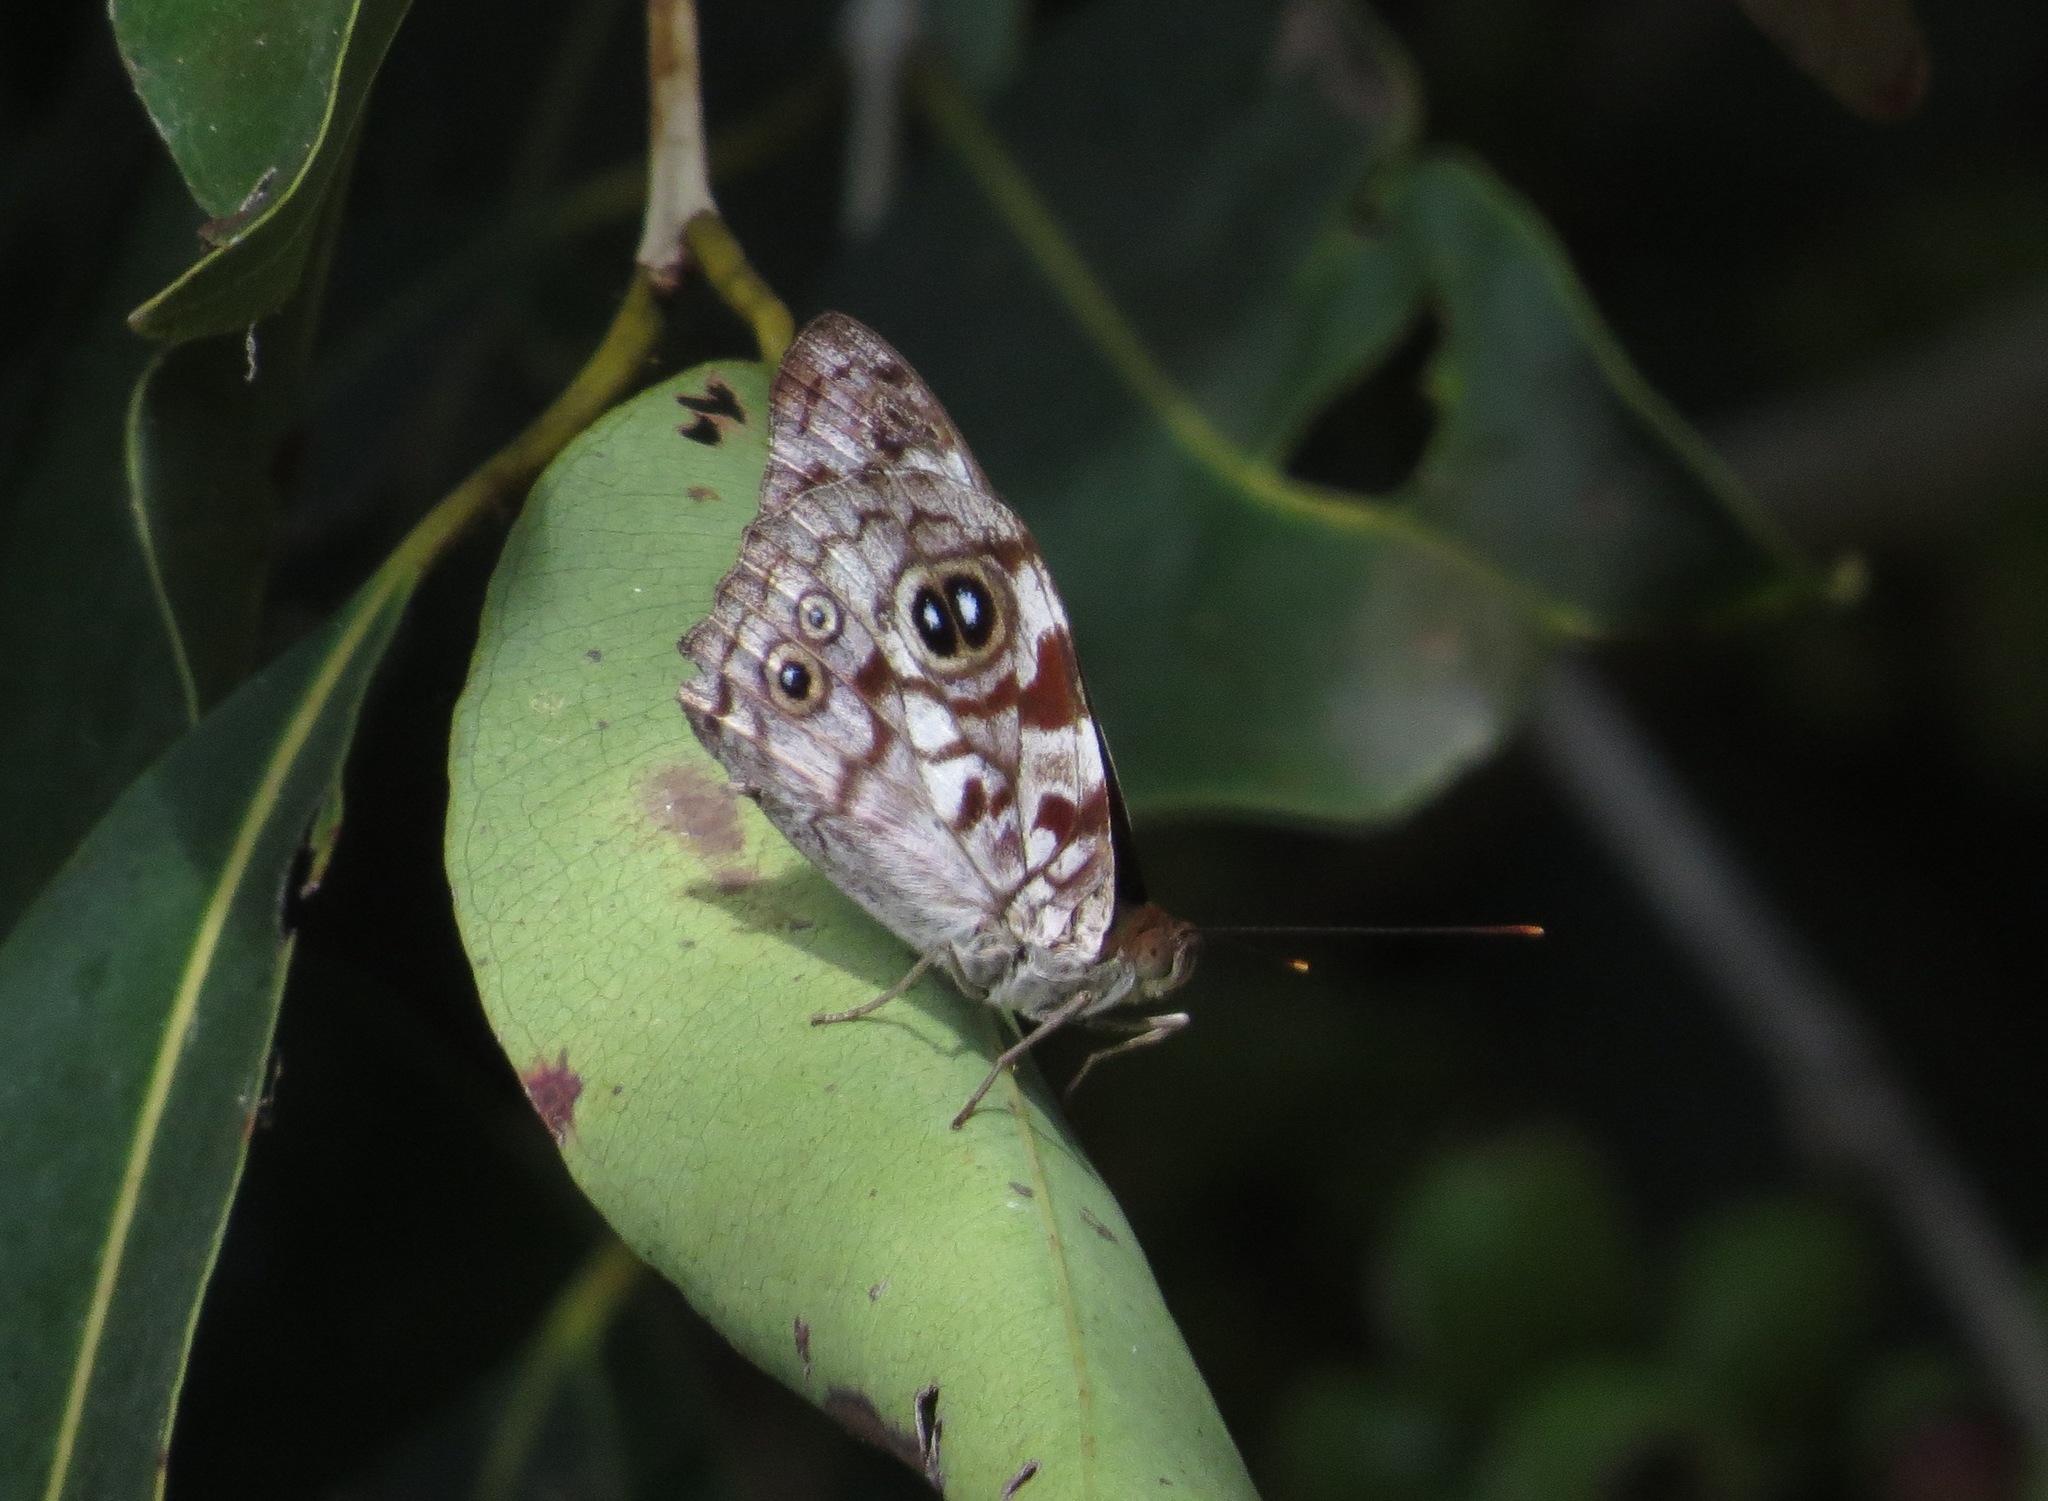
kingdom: Animalia
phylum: Arthropoda
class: Insecta
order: Lepidoptera
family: Nymphalidae
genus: Eunica
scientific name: Eunica malvina
